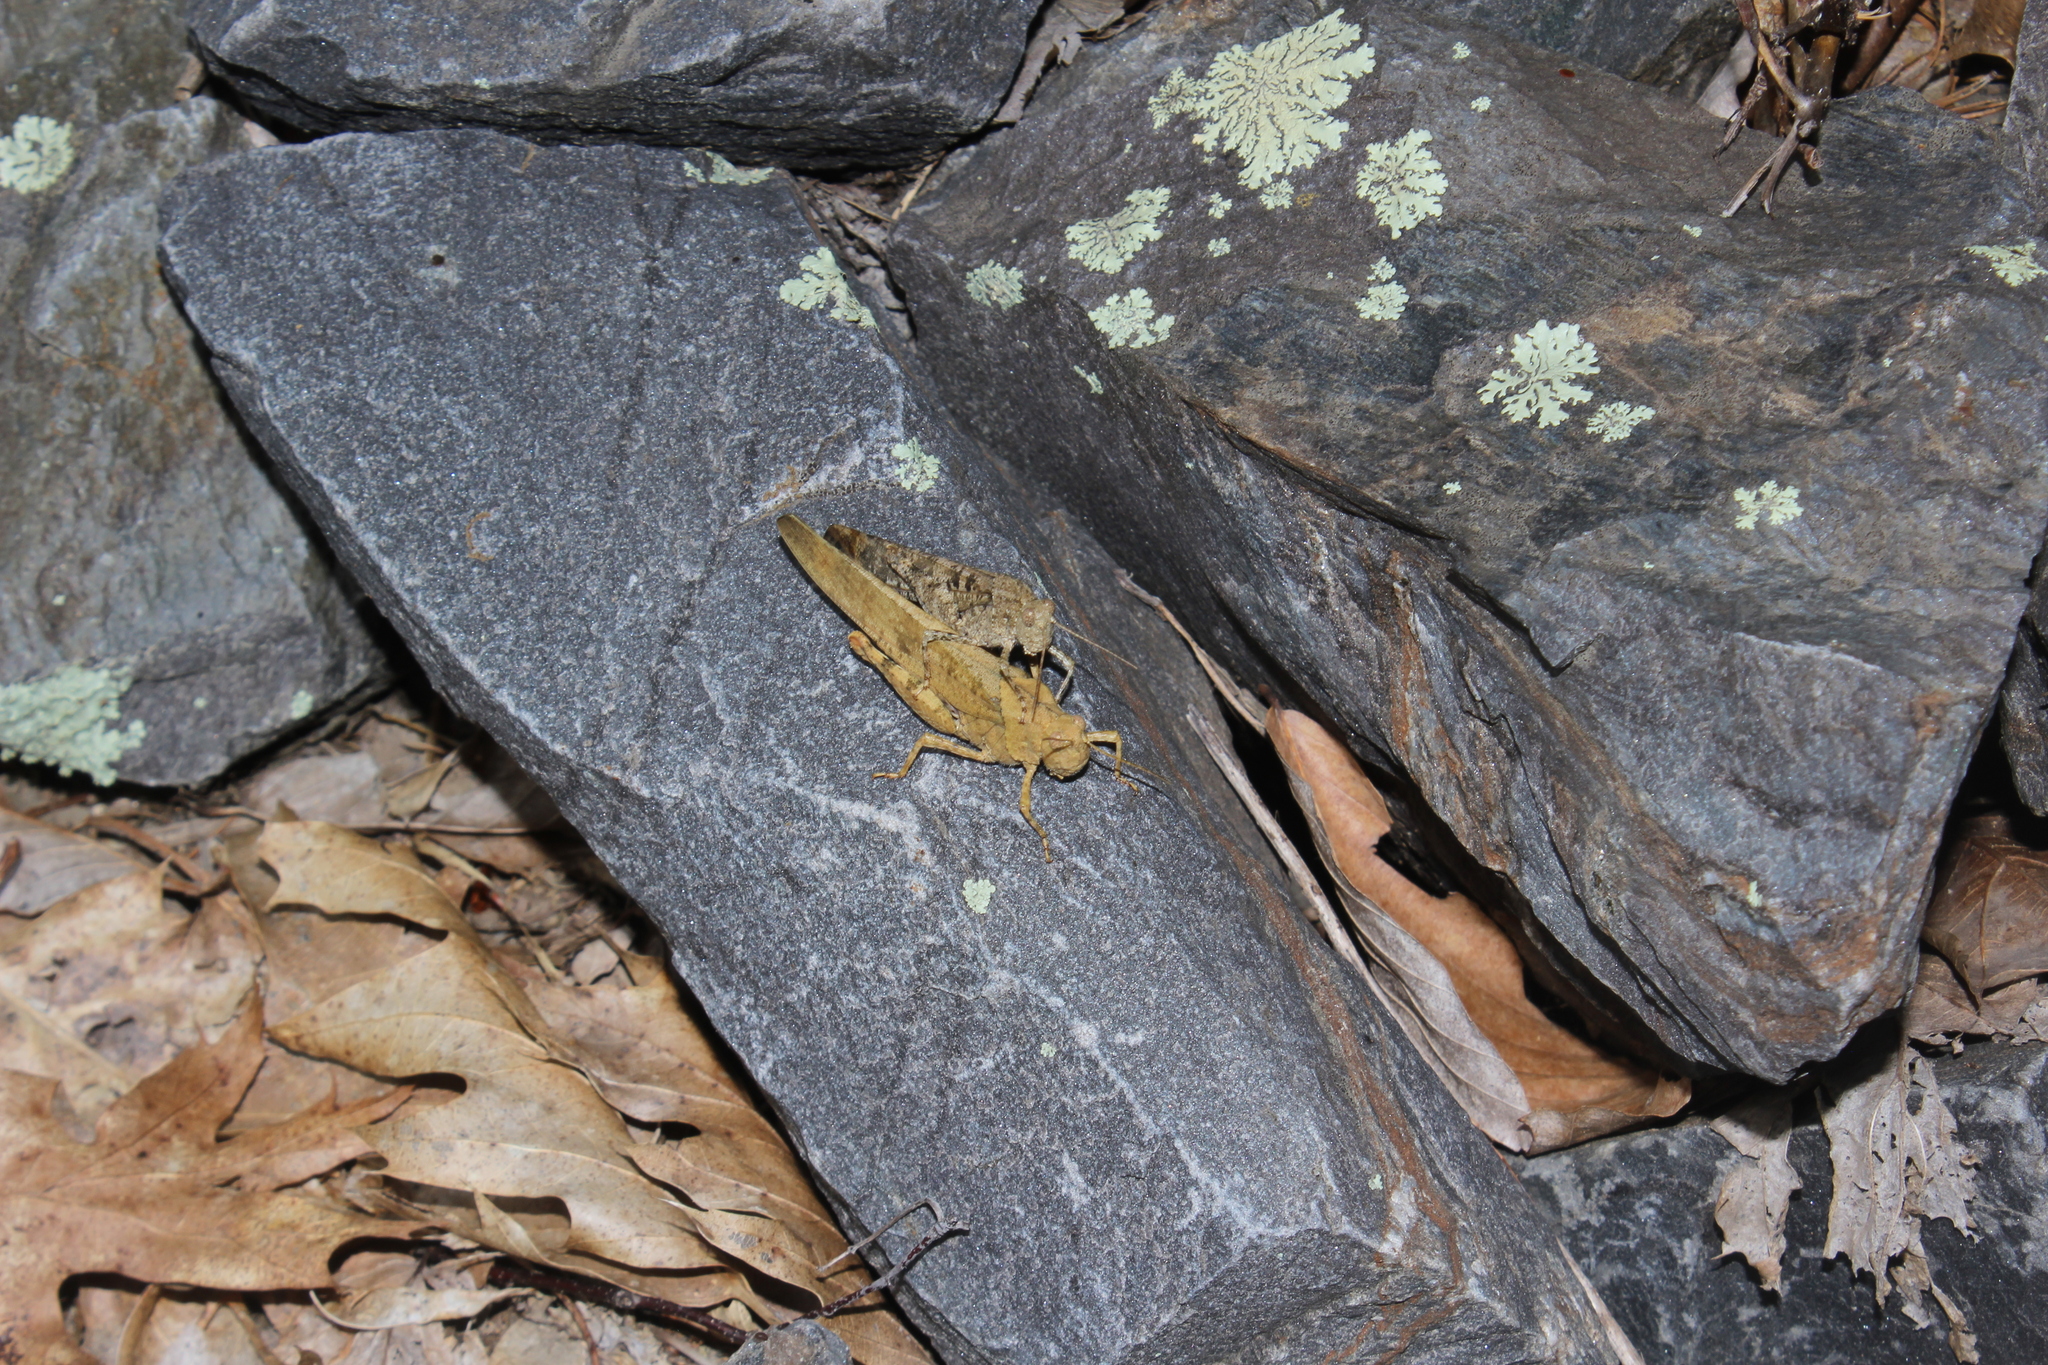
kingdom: Animalia
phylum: Arthropoda
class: Insecta
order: Orthoptera
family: Acrididae
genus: Dissosteira
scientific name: Dissosteira carolina
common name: Carolina grasshopper
